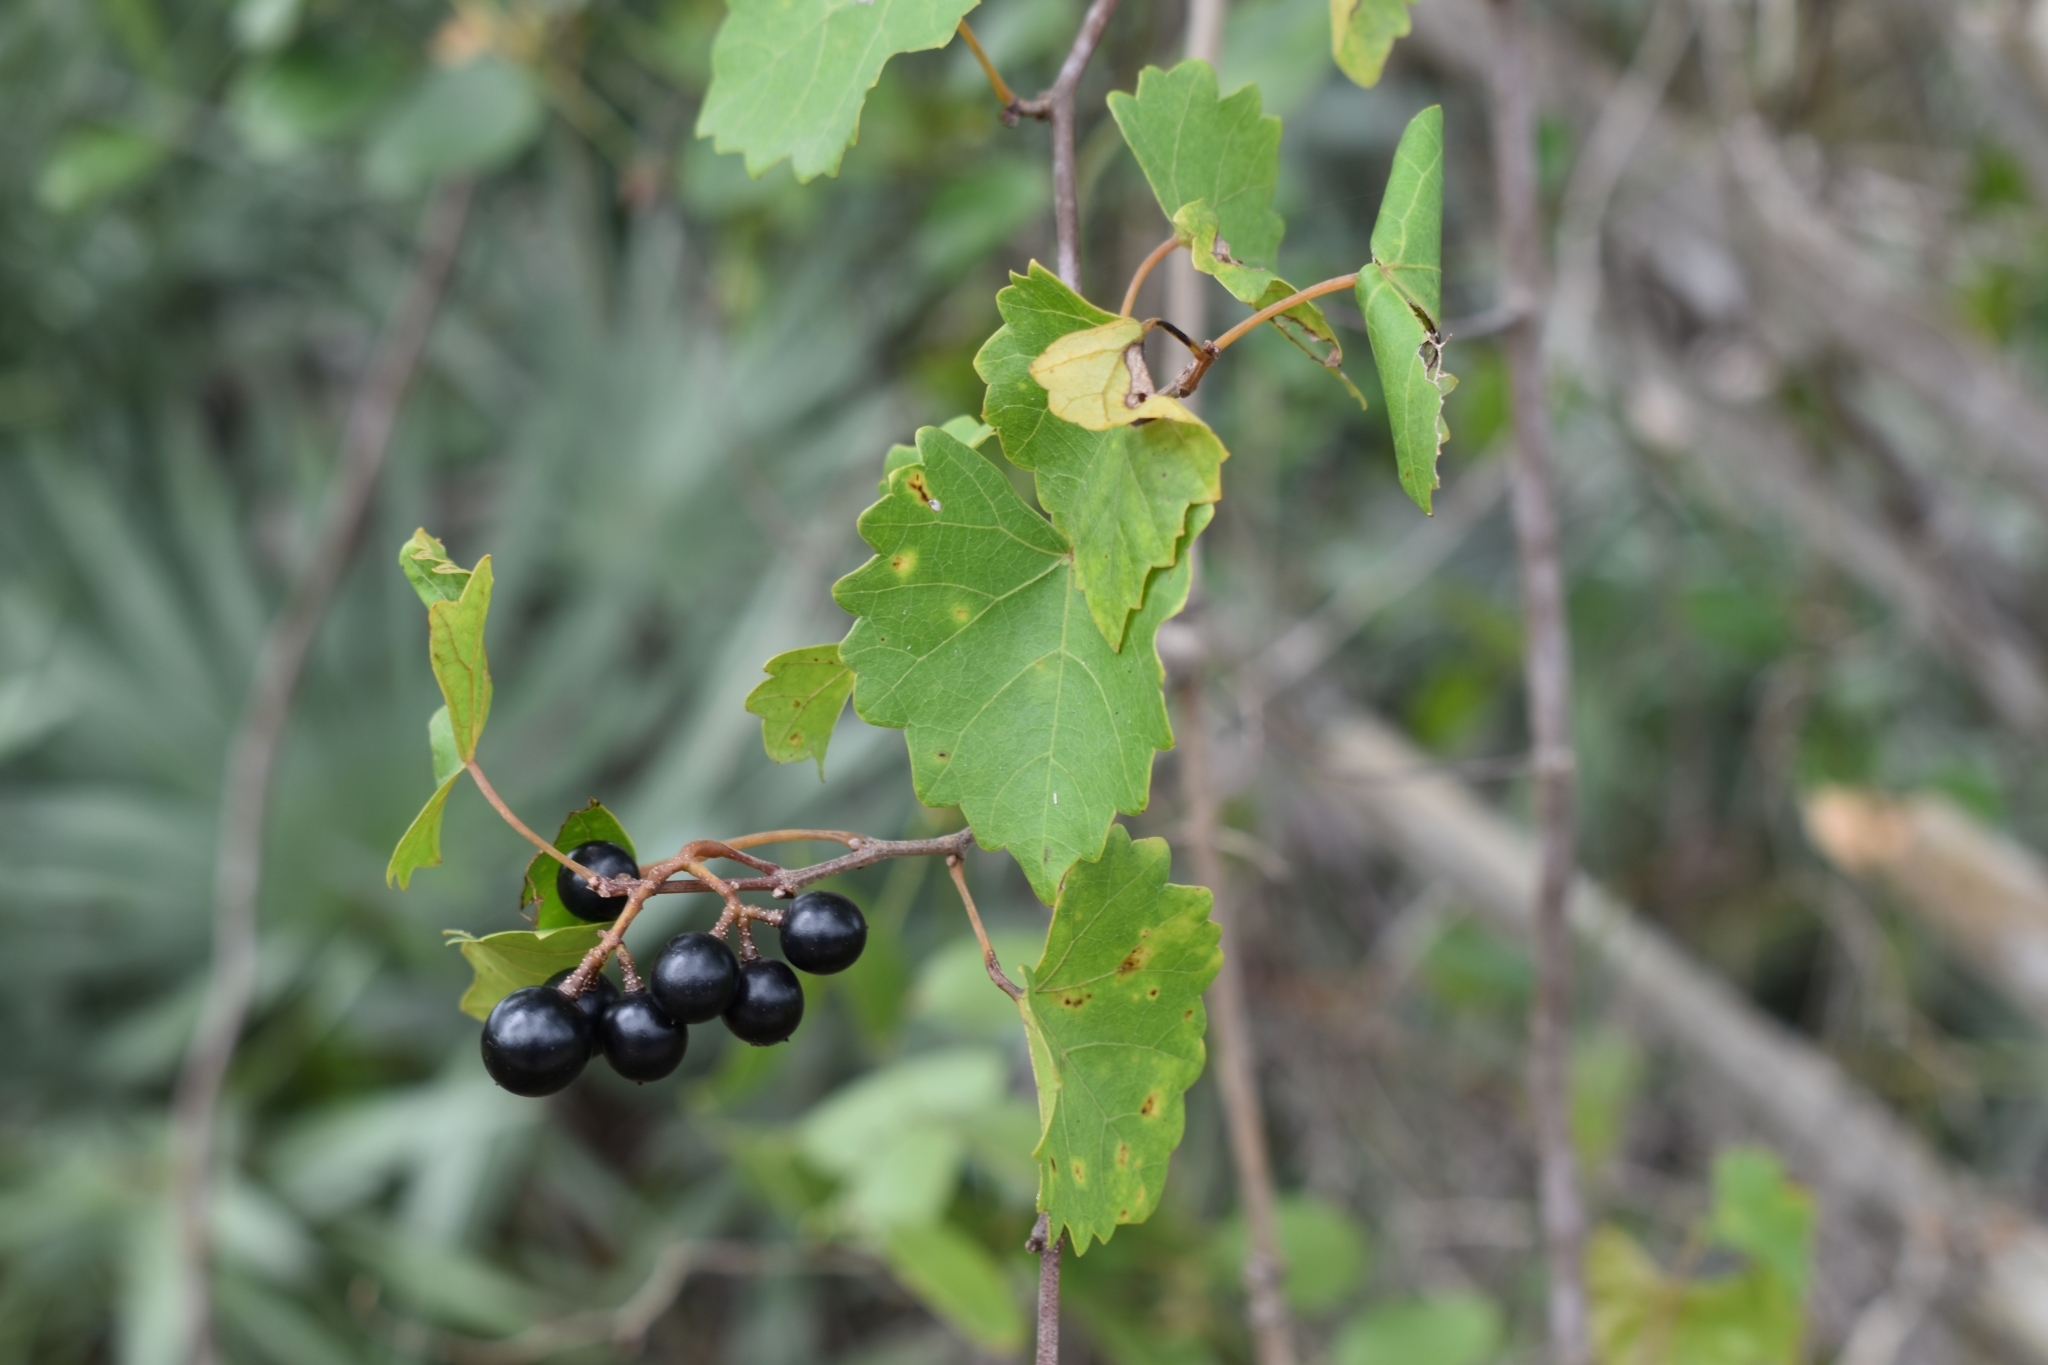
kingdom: Plantae
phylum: Tracheophyta
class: Magnoliopsida
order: Vitales
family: Vitaceae
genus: Vitis
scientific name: Vitis rotundifolia
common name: Muscadine grape
